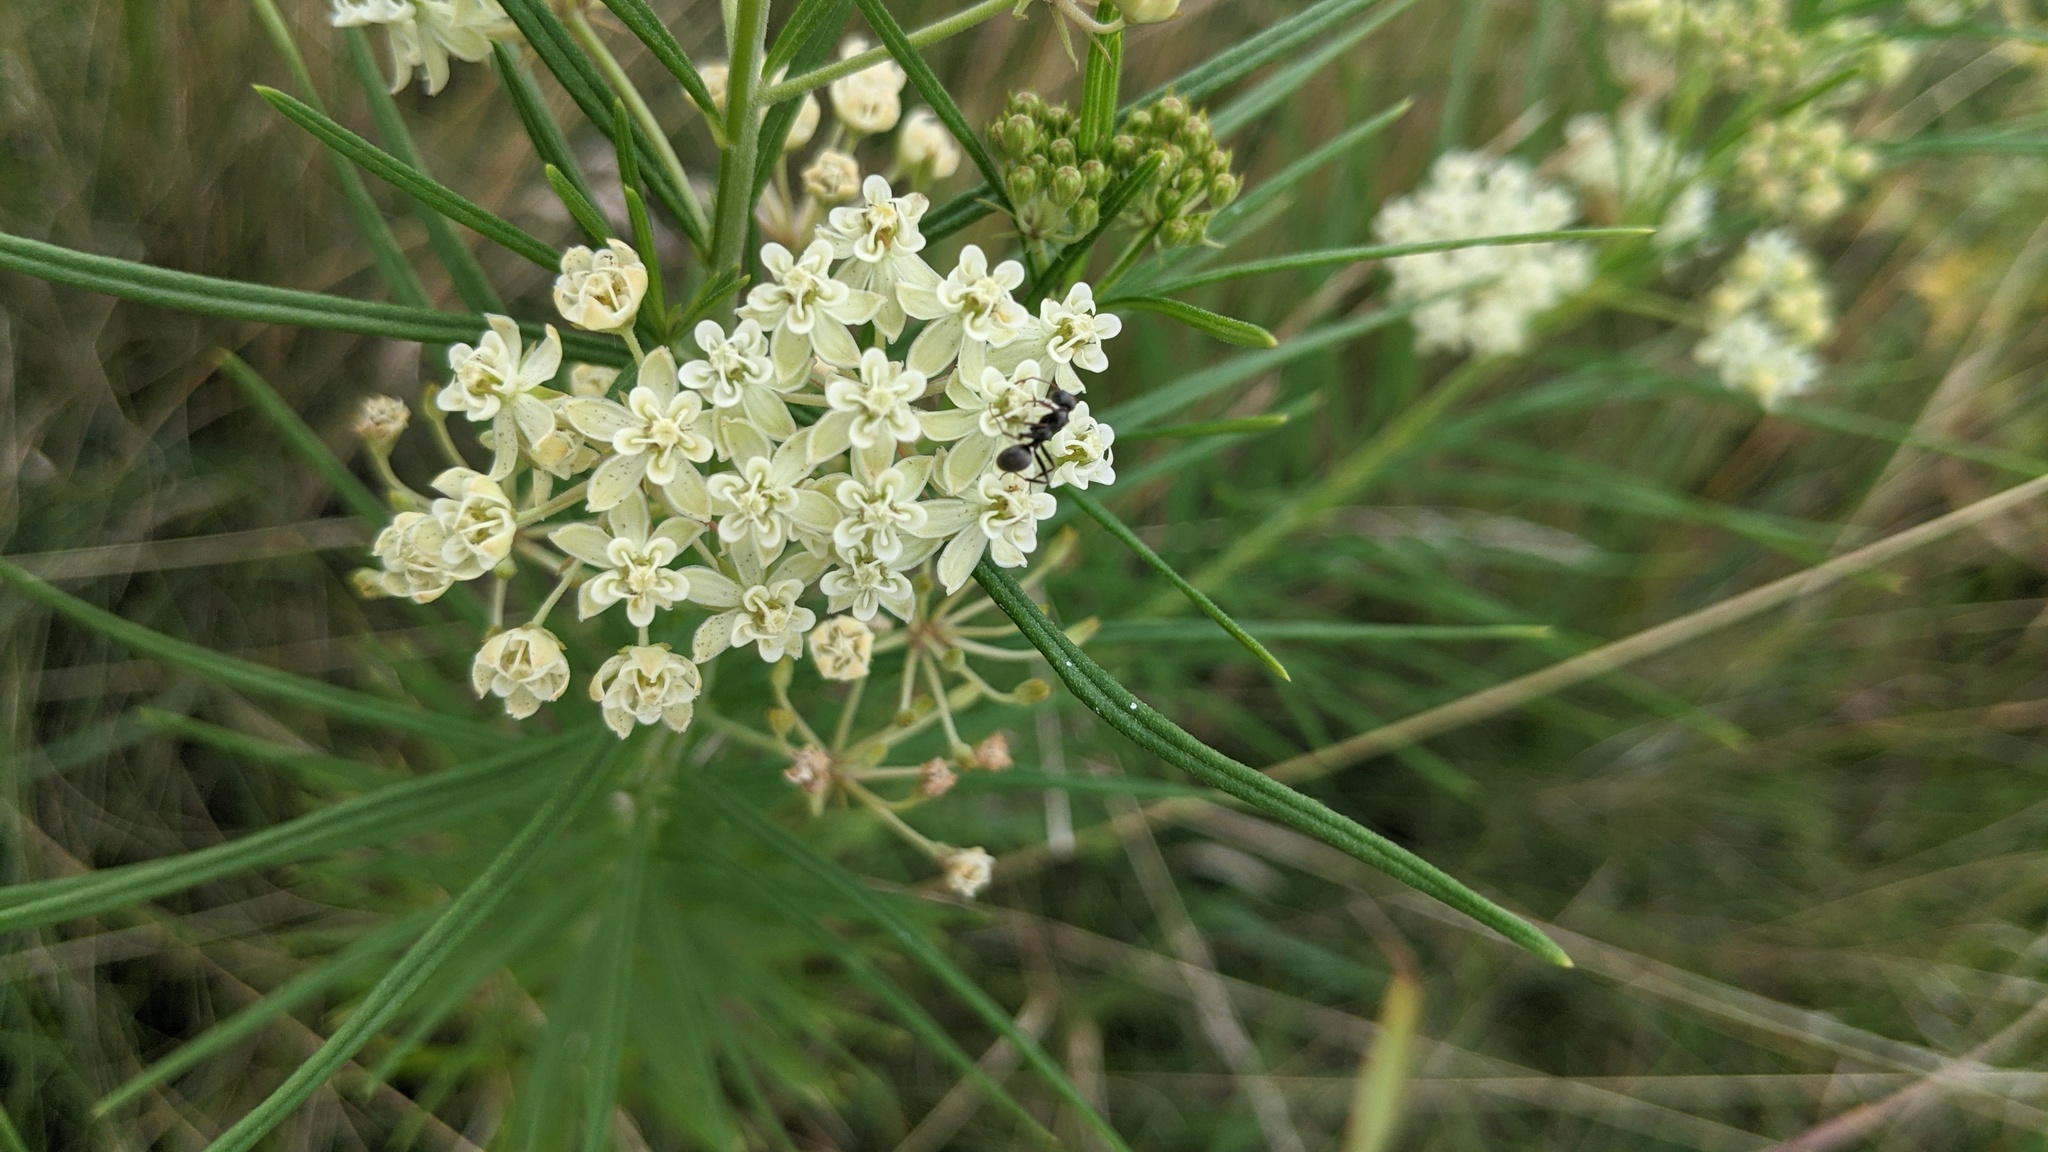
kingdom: Plantae
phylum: Tracheophyta
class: Magnoliopsida
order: Gentianales
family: Apocynaceae
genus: Asclepias
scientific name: Asclepias verticillata
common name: Eastern whorled milkweed
